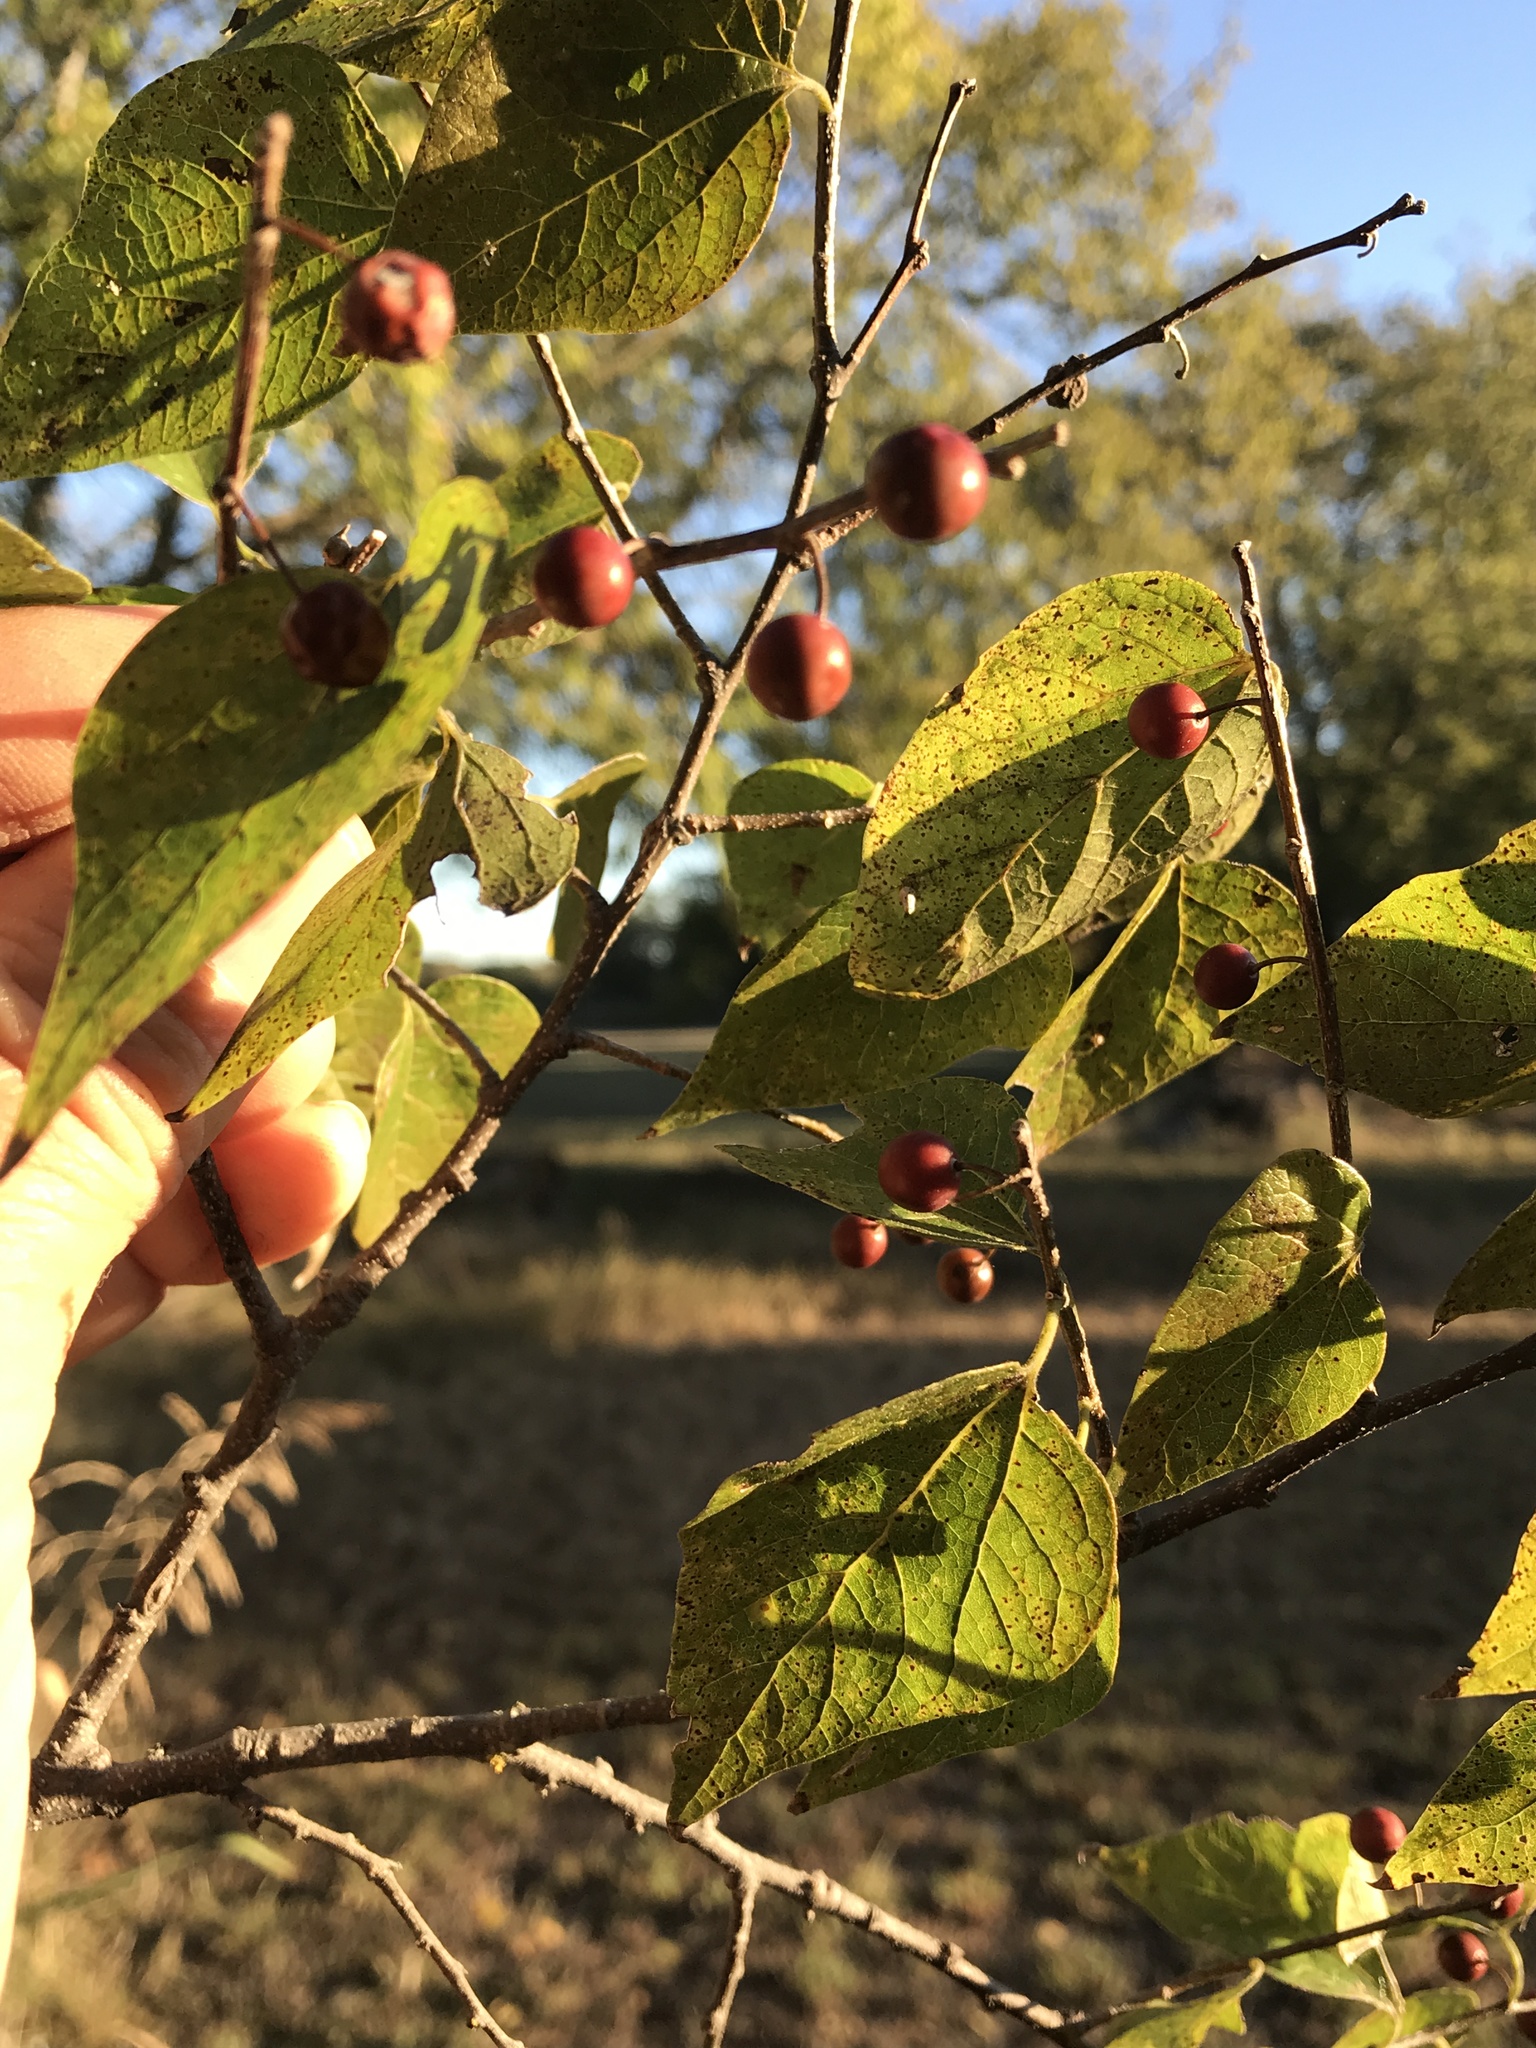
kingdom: Plantae
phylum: Tracheophyta
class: Magnoliopsida
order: Rosales
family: Cannabaceae
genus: Celtis
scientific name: Celtis laevigata
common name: Sugarberry
